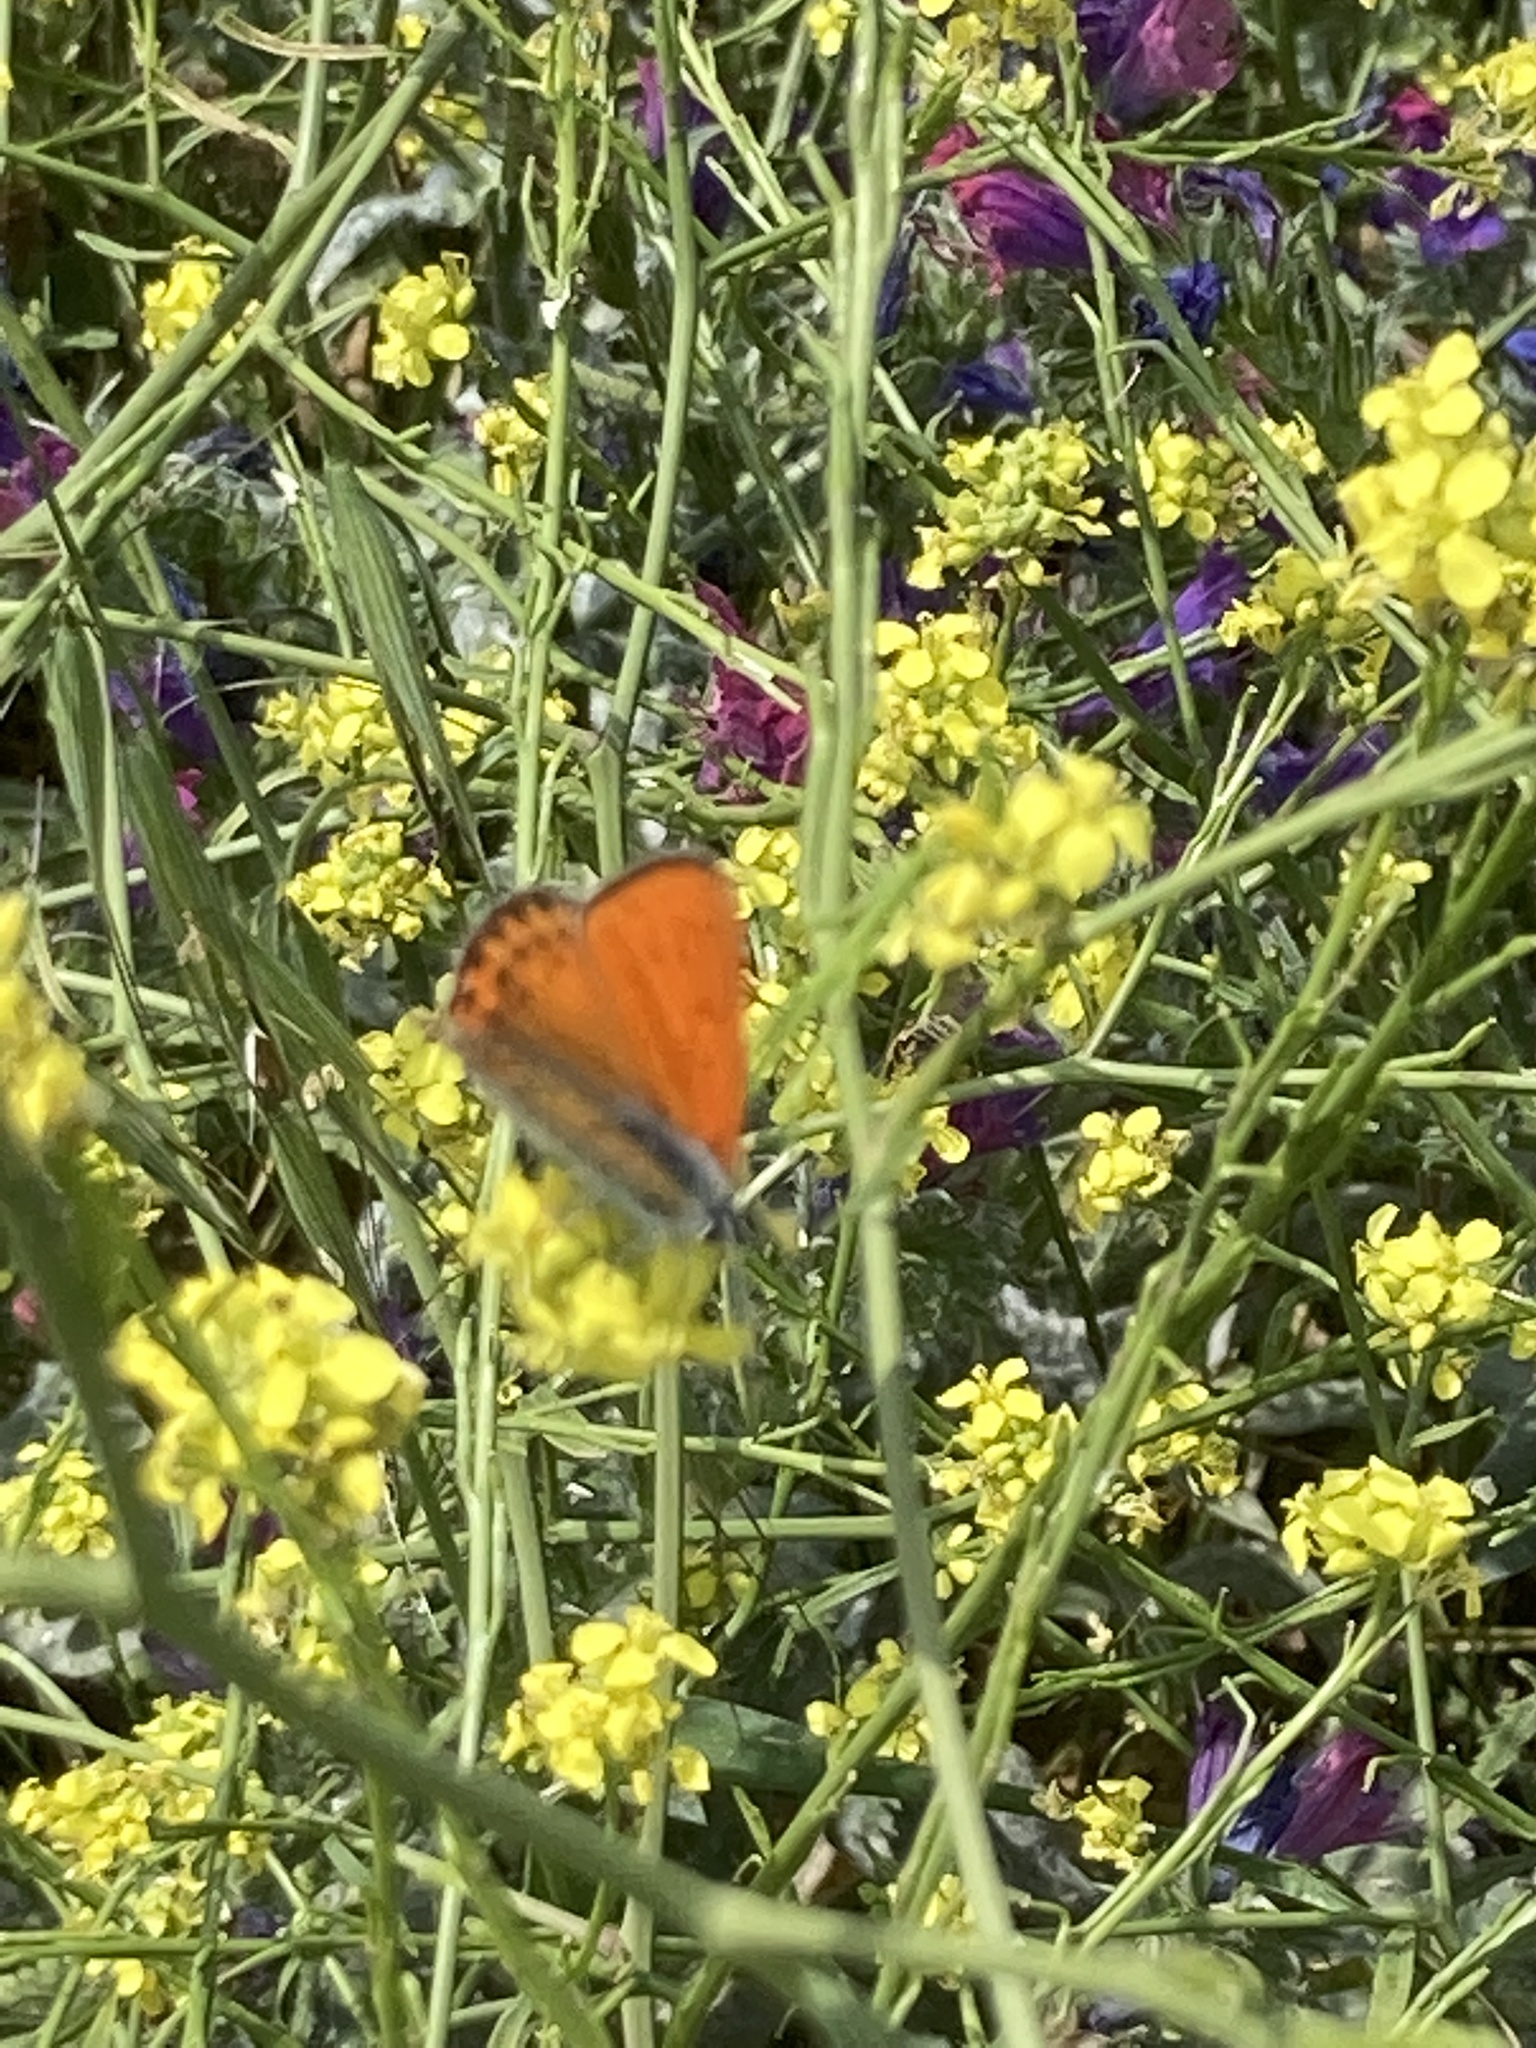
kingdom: Plantae
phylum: Tracheophyta
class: Magnoliopsida
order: Brassicales
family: Brassicaceae
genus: Hirschfeldia
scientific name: Hirschfeldia incana
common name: Hoary mustard
